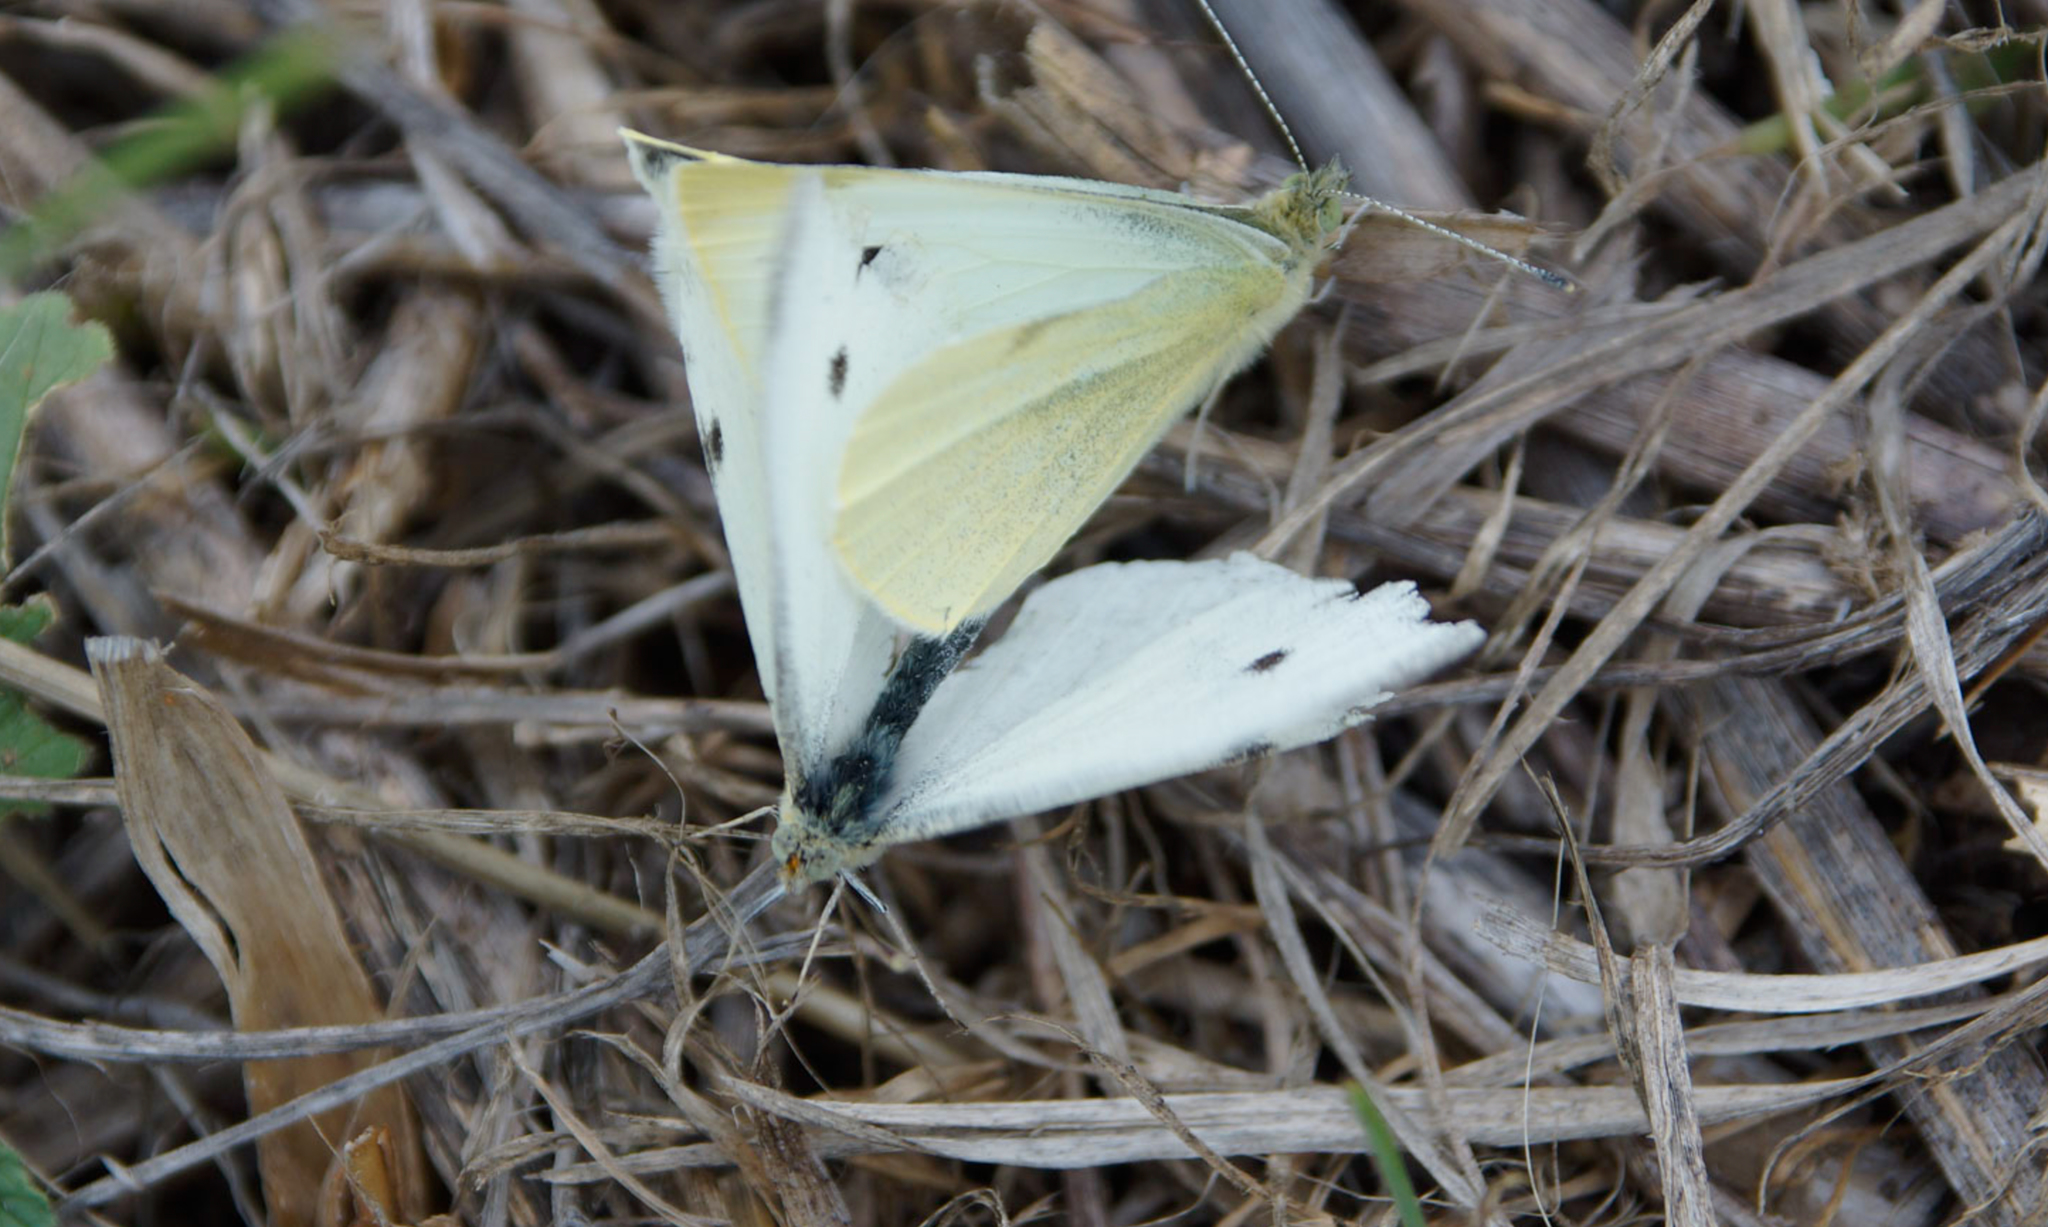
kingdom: Animalia
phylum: Arthropoda
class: Insecta
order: Lepidoptera
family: Pieridae
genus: Pieris
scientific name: Pieris rapae
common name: Small white
